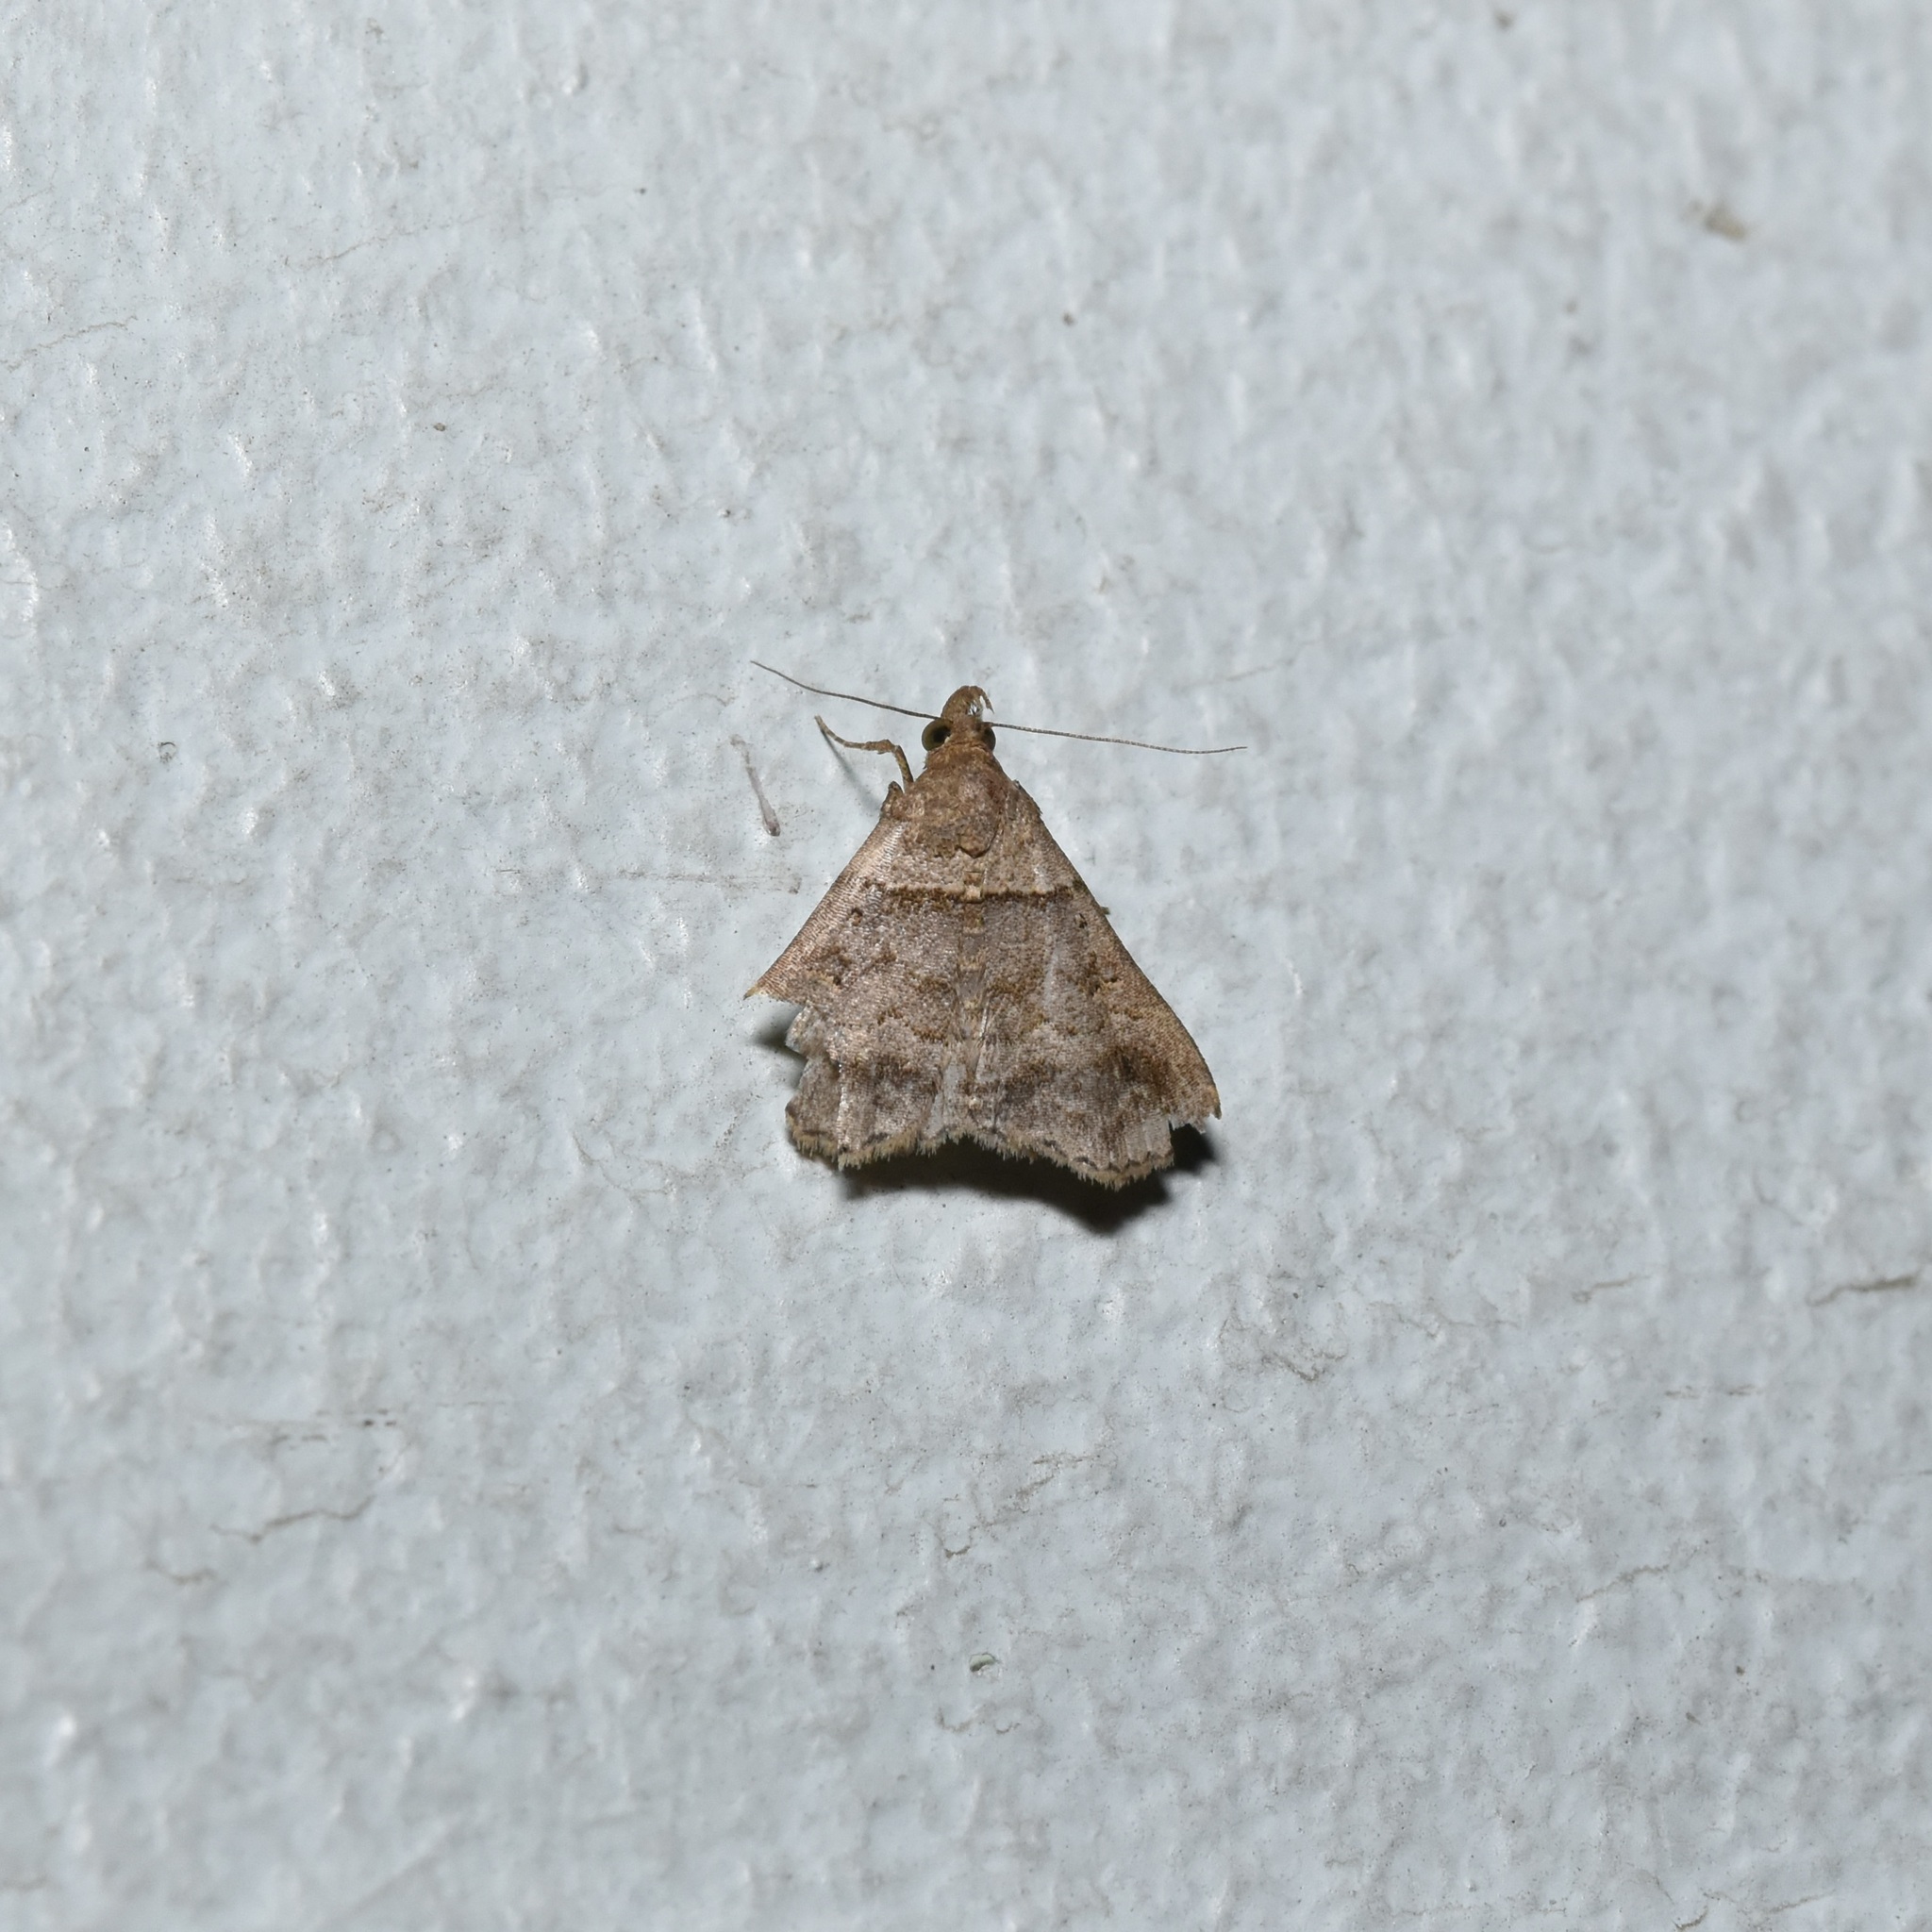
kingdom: Animalia
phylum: Arthropoda
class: Insecta
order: Lepidoptera
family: Erebidae
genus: Heterogramma
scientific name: Heterogramma circumflexalis
